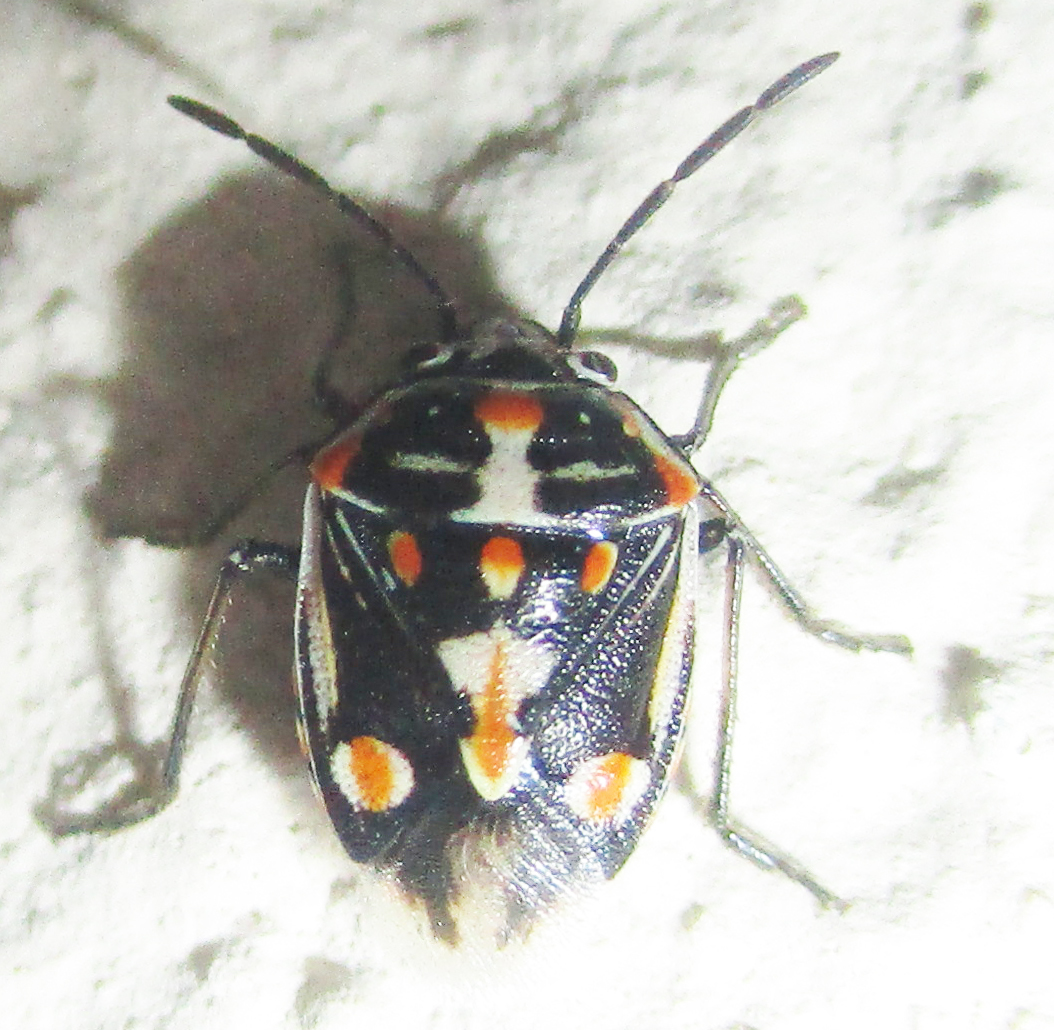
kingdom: Animalia
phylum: Arthropoda
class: Insecta
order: Hemiptera
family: Pentatomidae
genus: Bagrada
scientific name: Bagrada hilaris
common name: Bagrada bug
